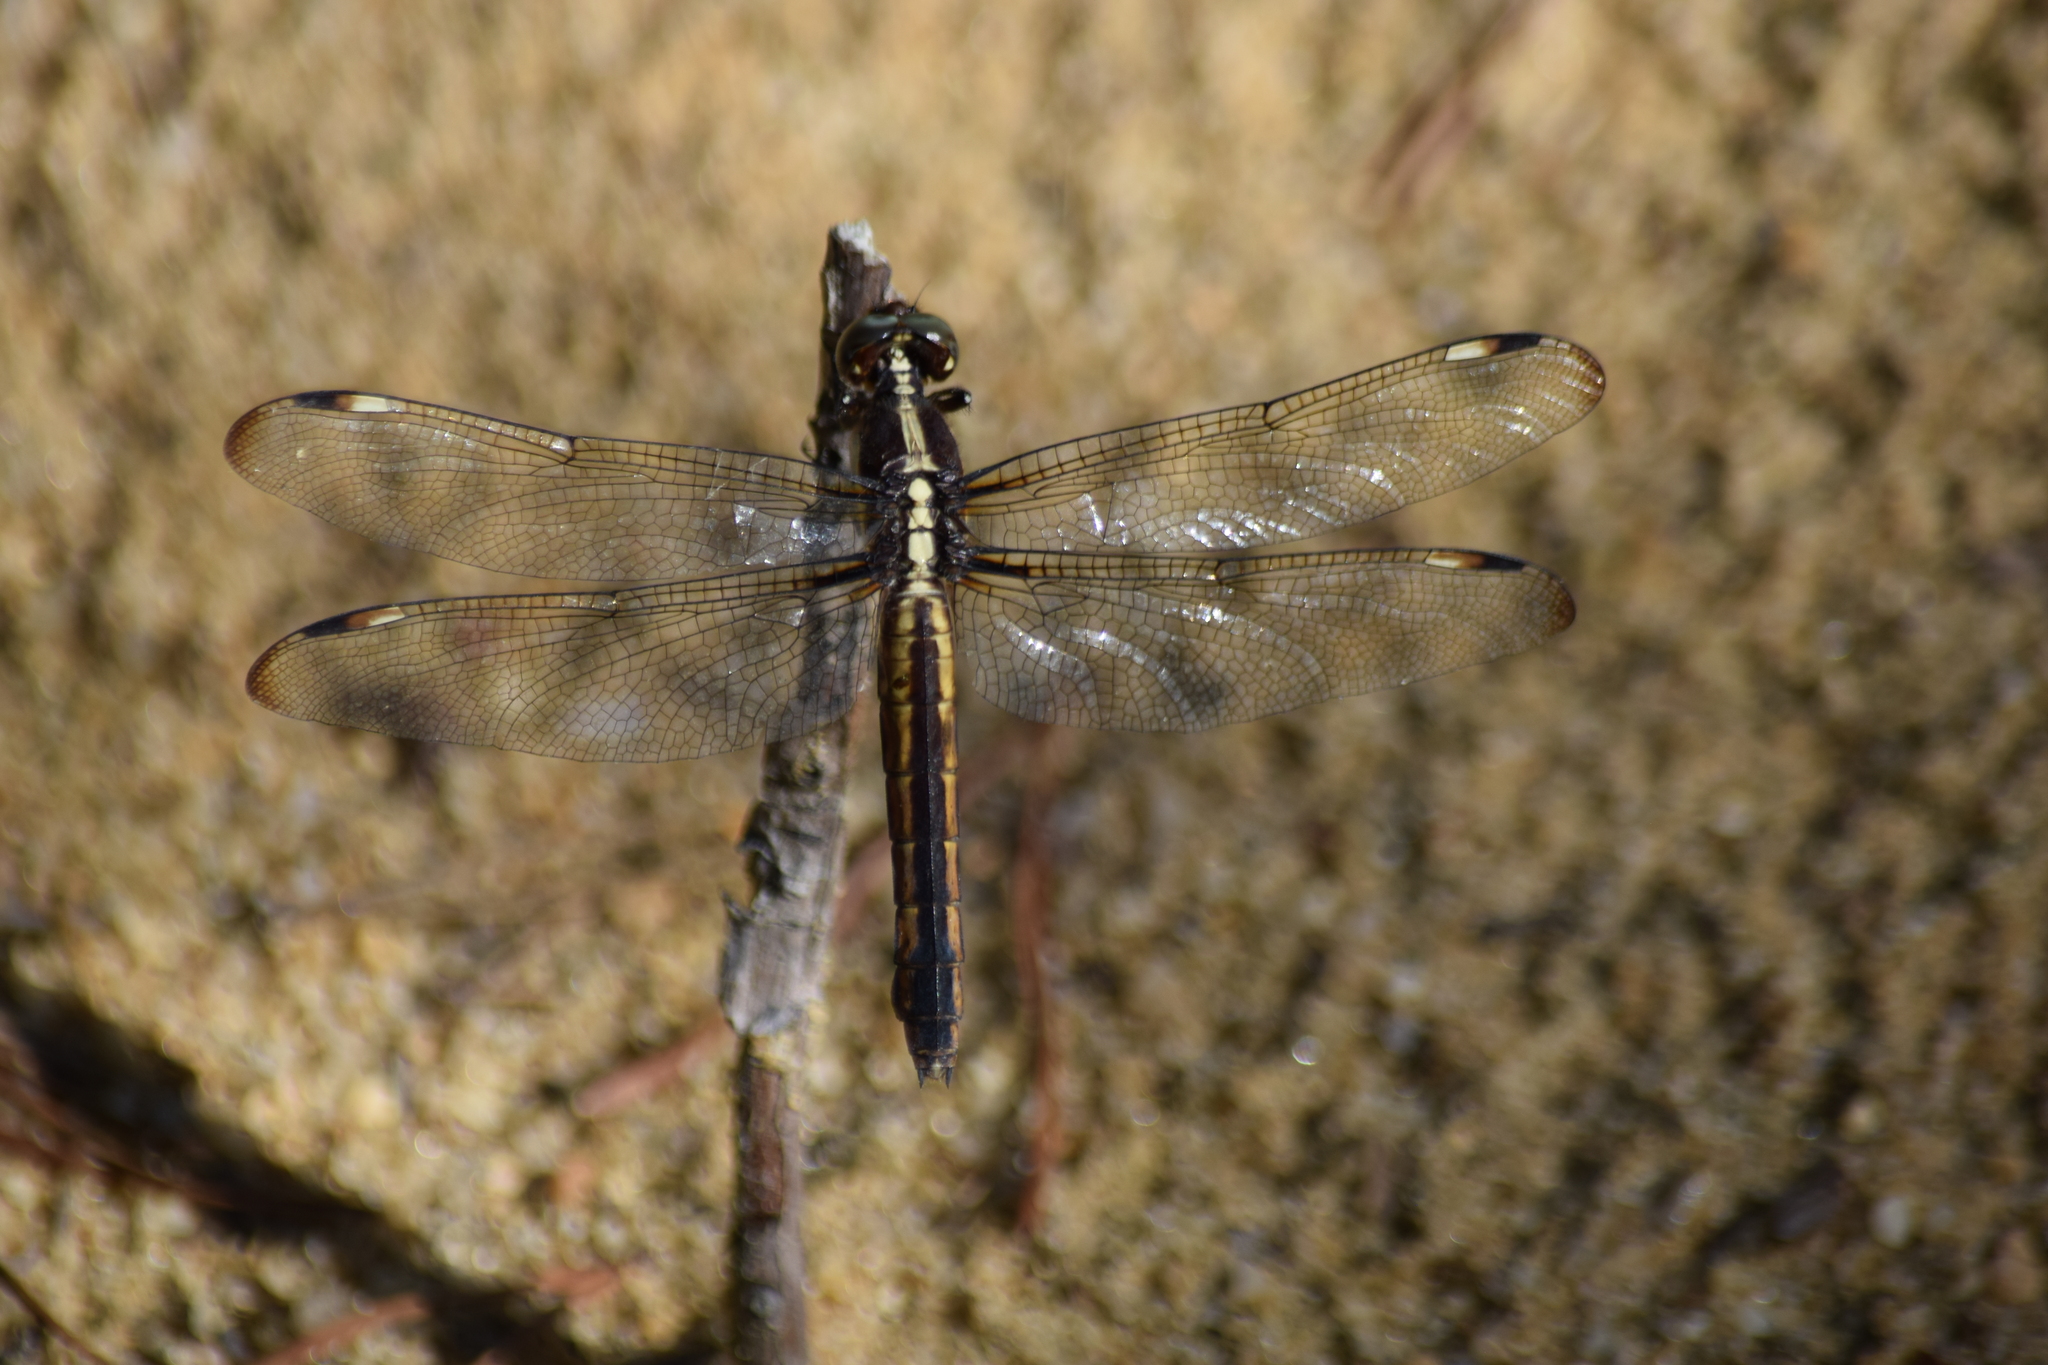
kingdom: Animalia
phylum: Arthropoda
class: Insecta
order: Odonata
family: Libellulidae
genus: Libellula
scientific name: Libellula cyanea
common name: Spangled skimmer
